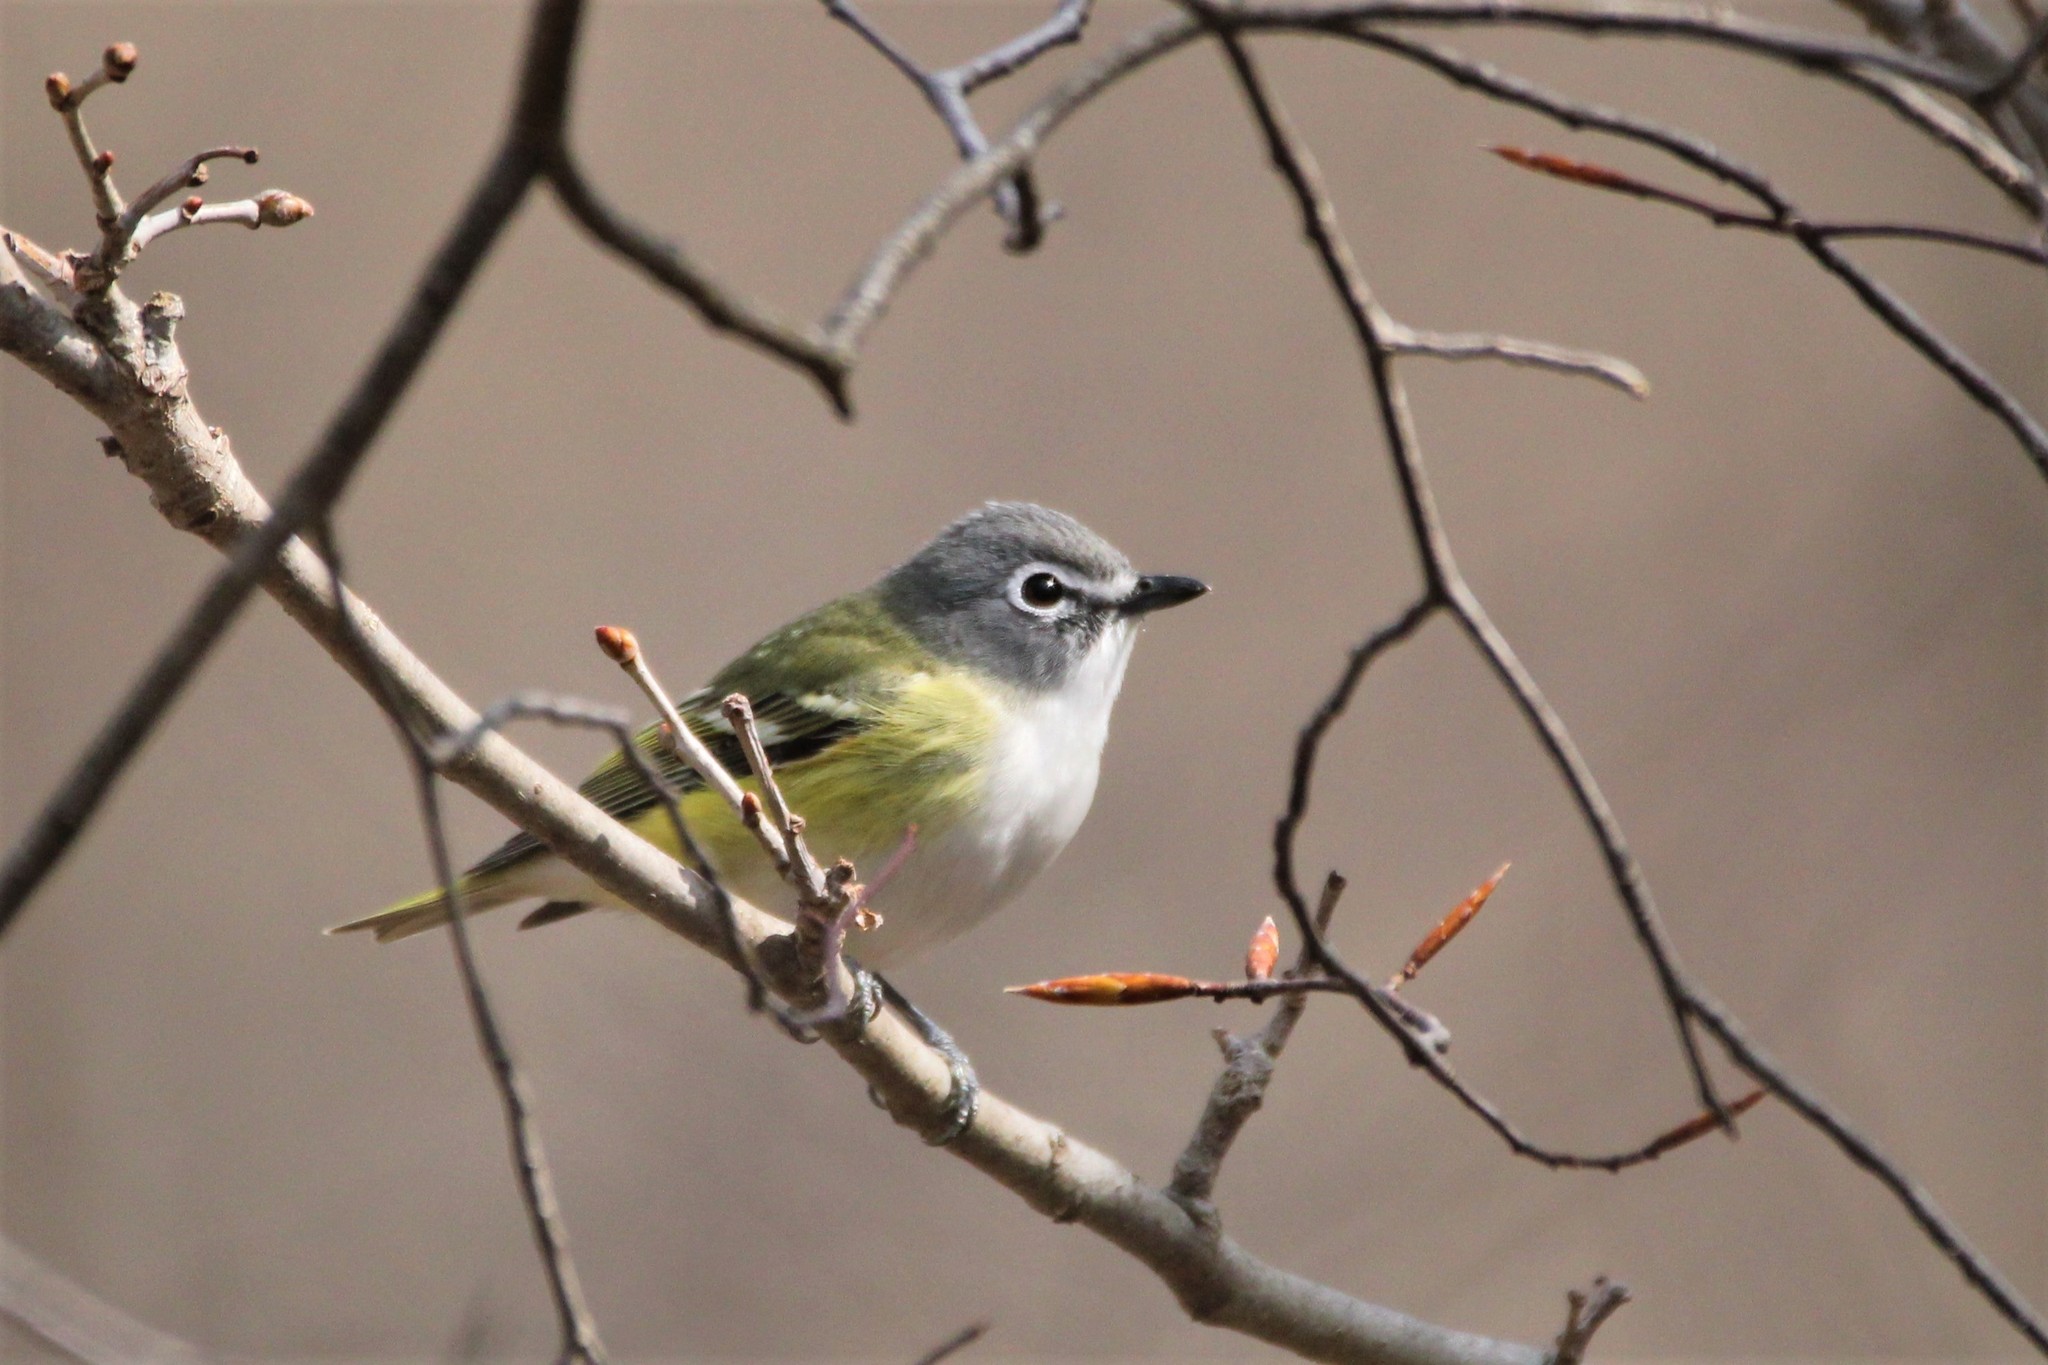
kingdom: Animalia
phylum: Chordata
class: Aves
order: Passeriformes
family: Vireonidae
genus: Vireo
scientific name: Vireo solitarius
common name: Blue-headed vireo
